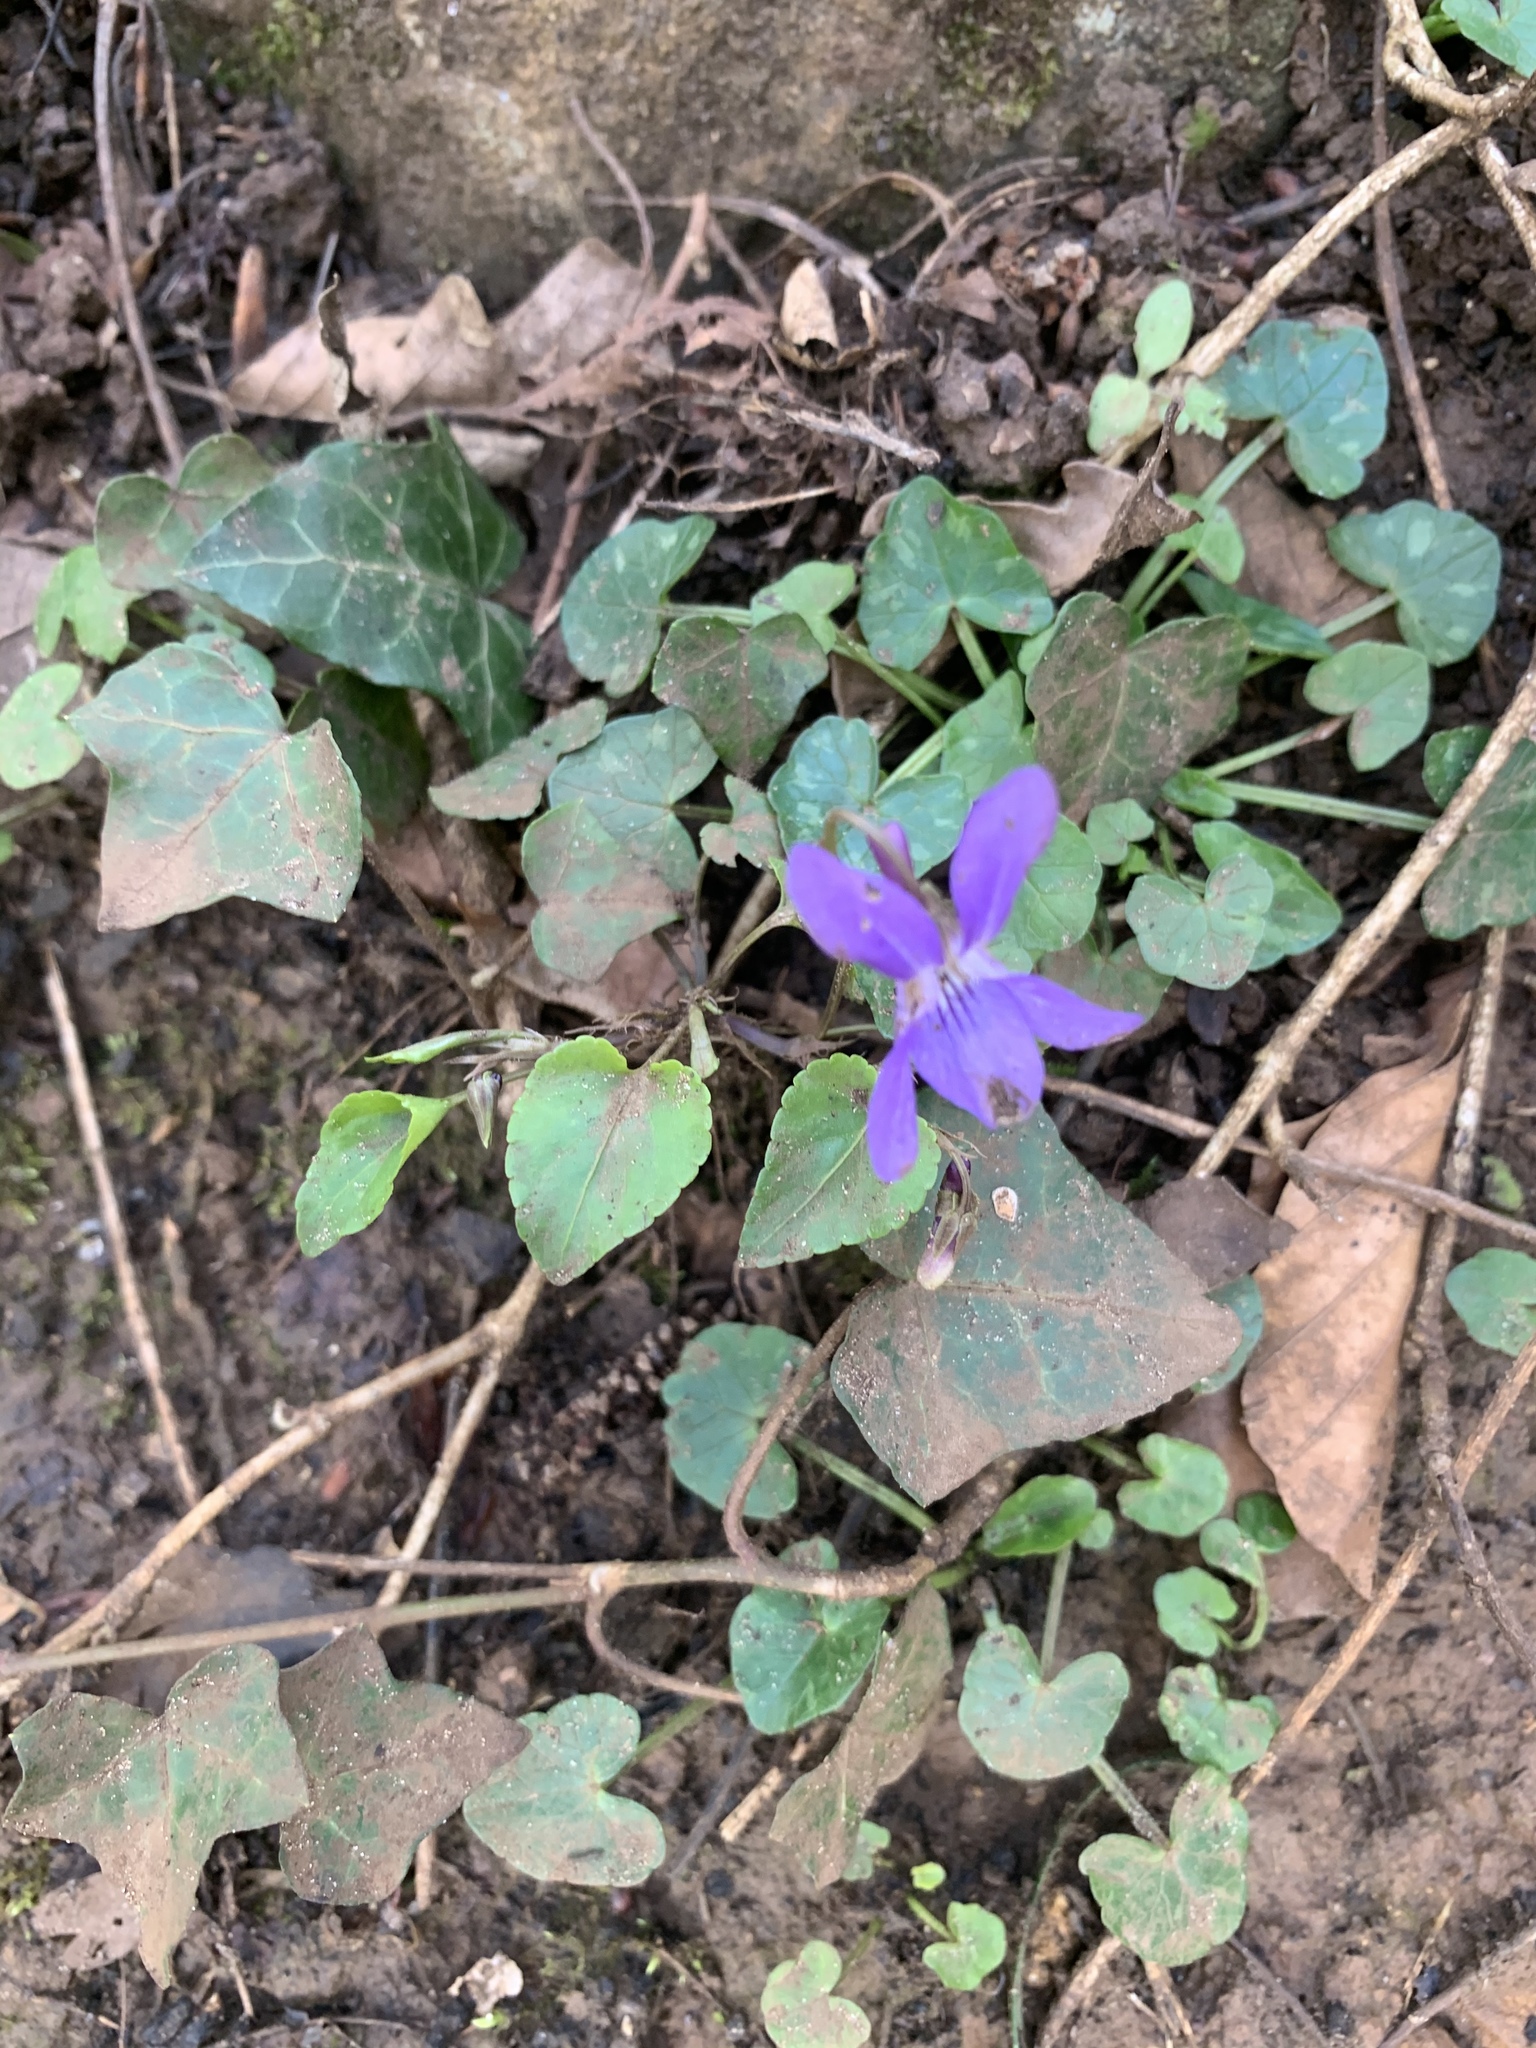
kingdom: Plantae
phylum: Tracheophyta
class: Magnoliopsida
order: Malpighiales
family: Violaceae
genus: Viola
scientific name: Viola reichenbachiana
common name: Early dog-violet
